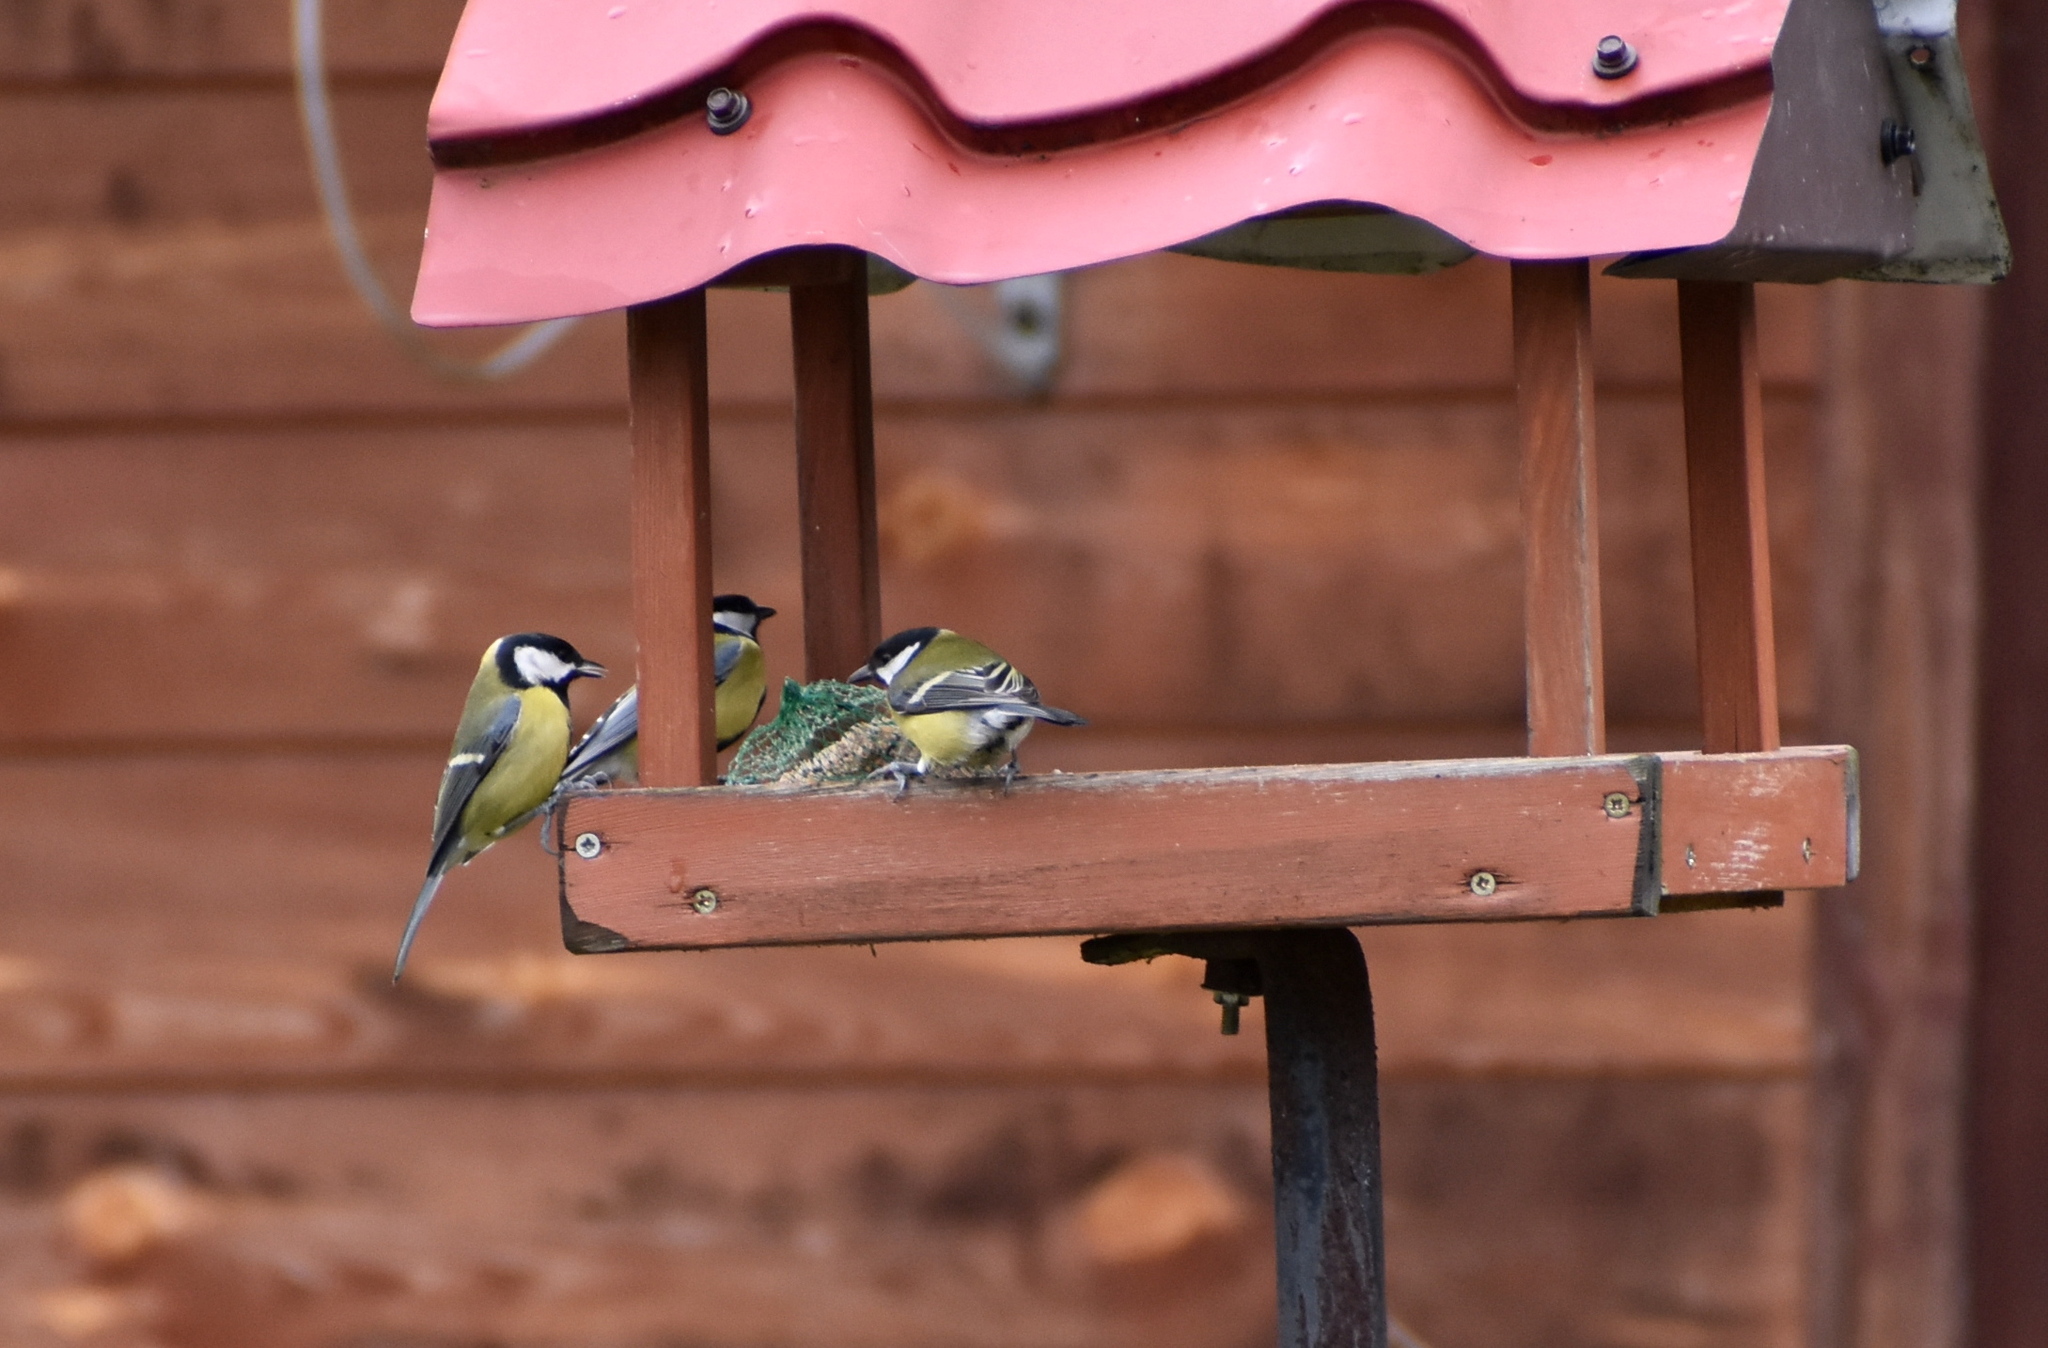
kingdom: Animalia
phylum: Chordata
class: Aves
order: Passeriformes
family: Paridae
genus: Parus
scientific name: Parus major
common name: Great tit
